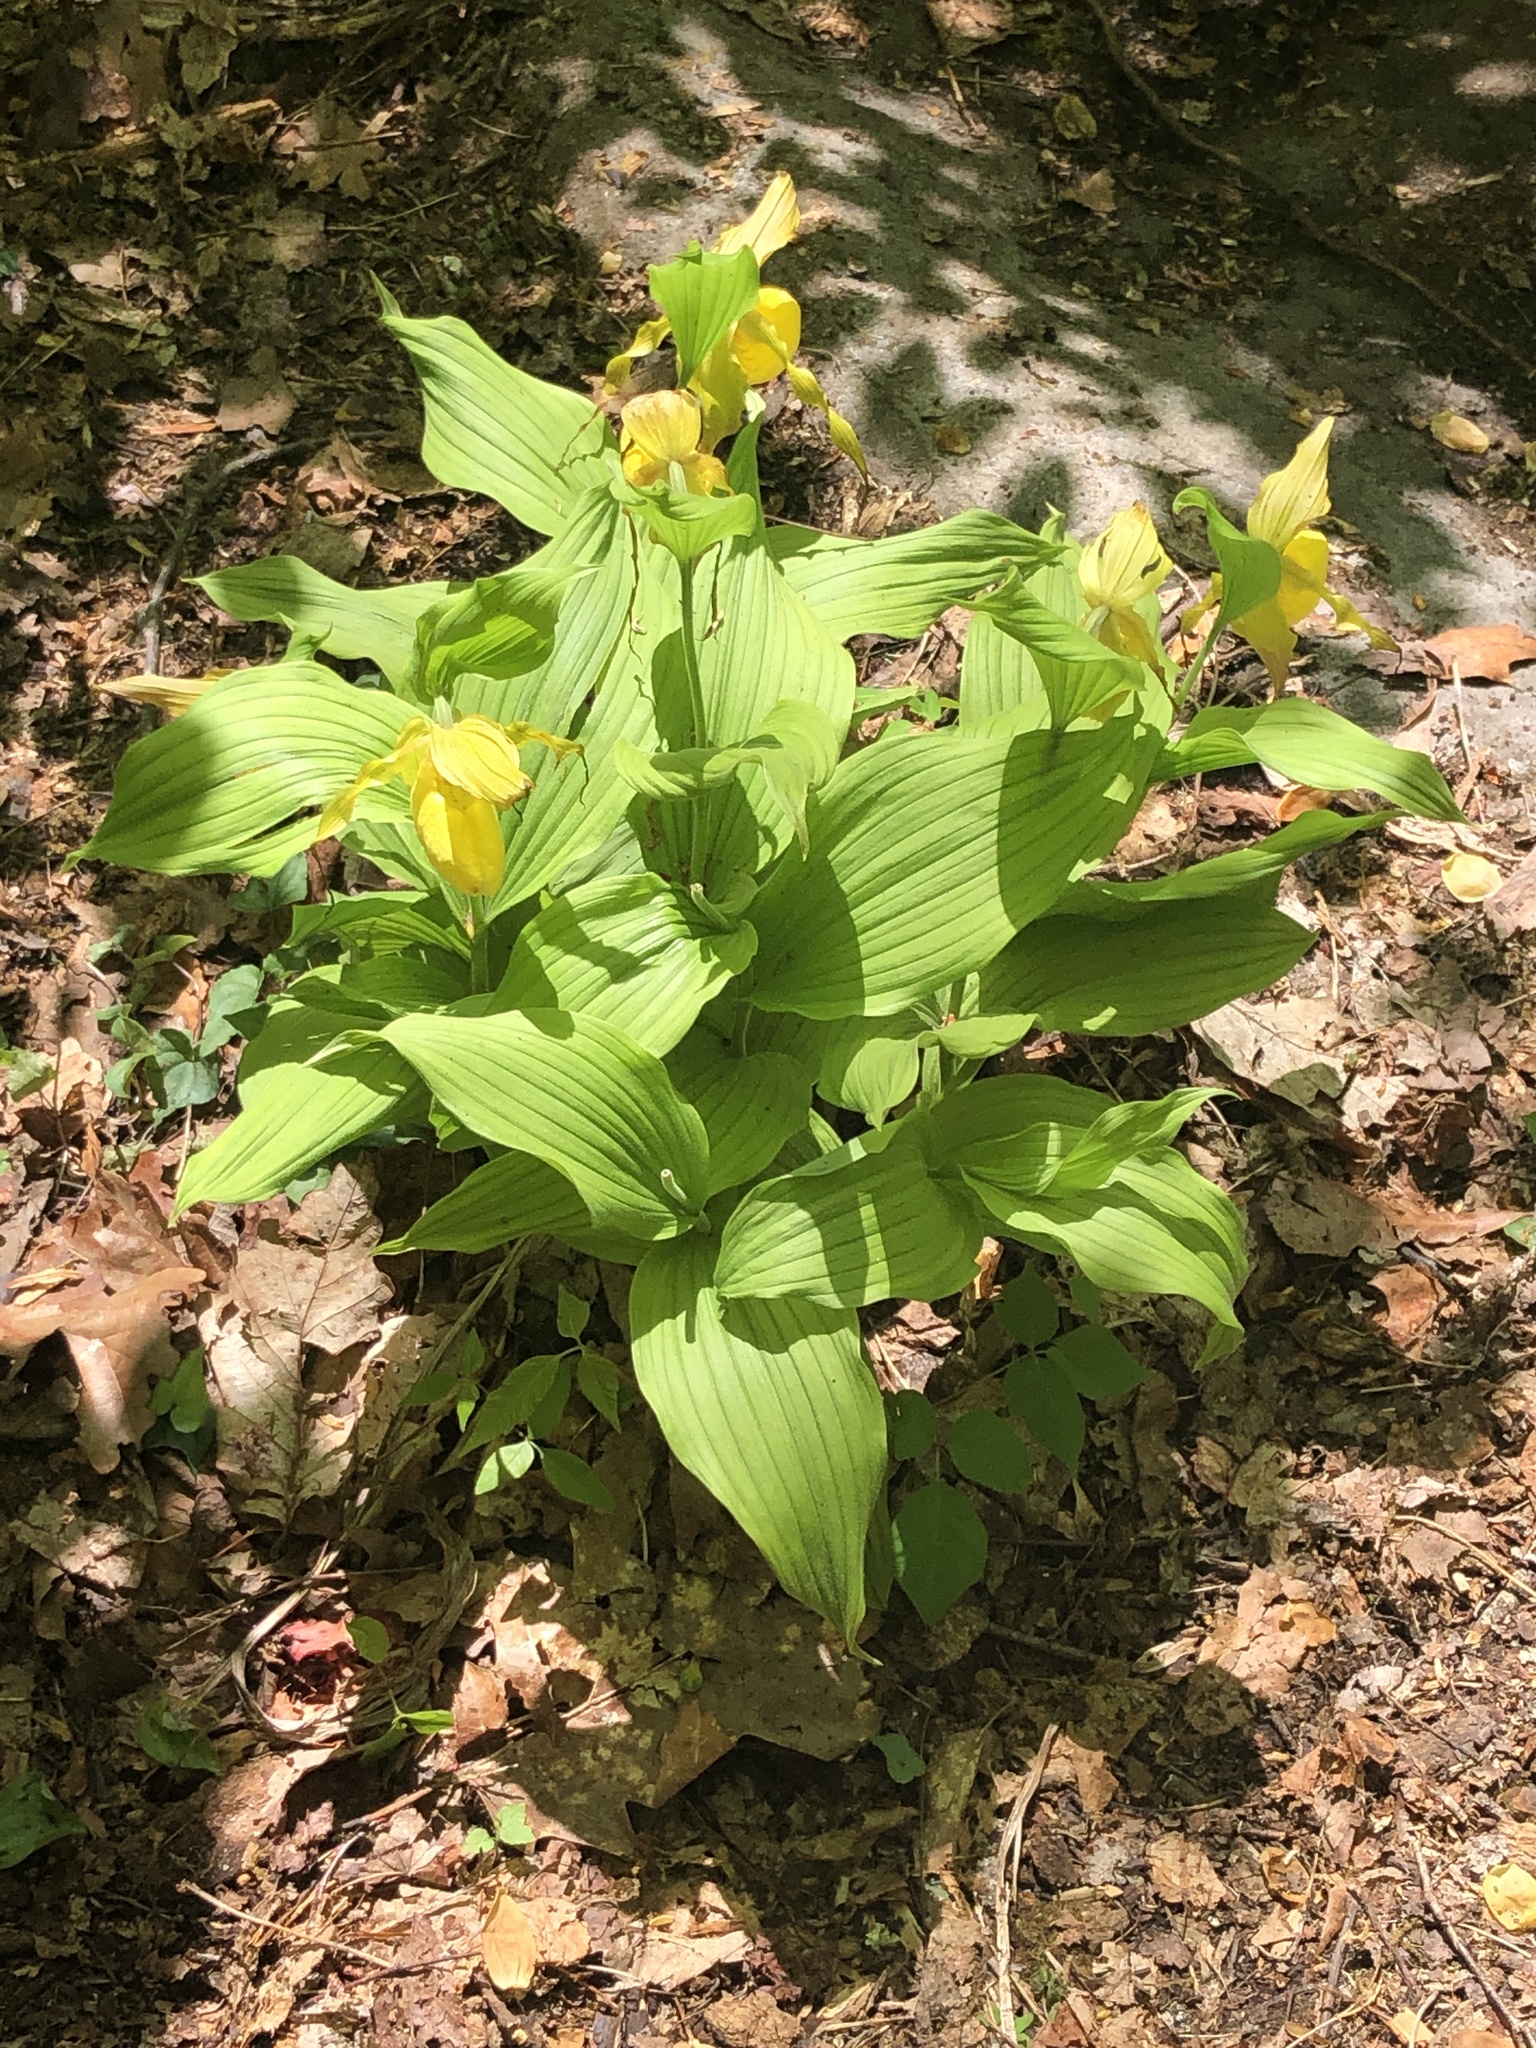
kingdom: Plantae
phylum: Tracheophyta
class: Liliopsida
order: Asparagales
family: Orchidaceae
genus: Cypripedium
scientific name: Cypripedium parviflorum
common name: American yellow lady's-slipper
